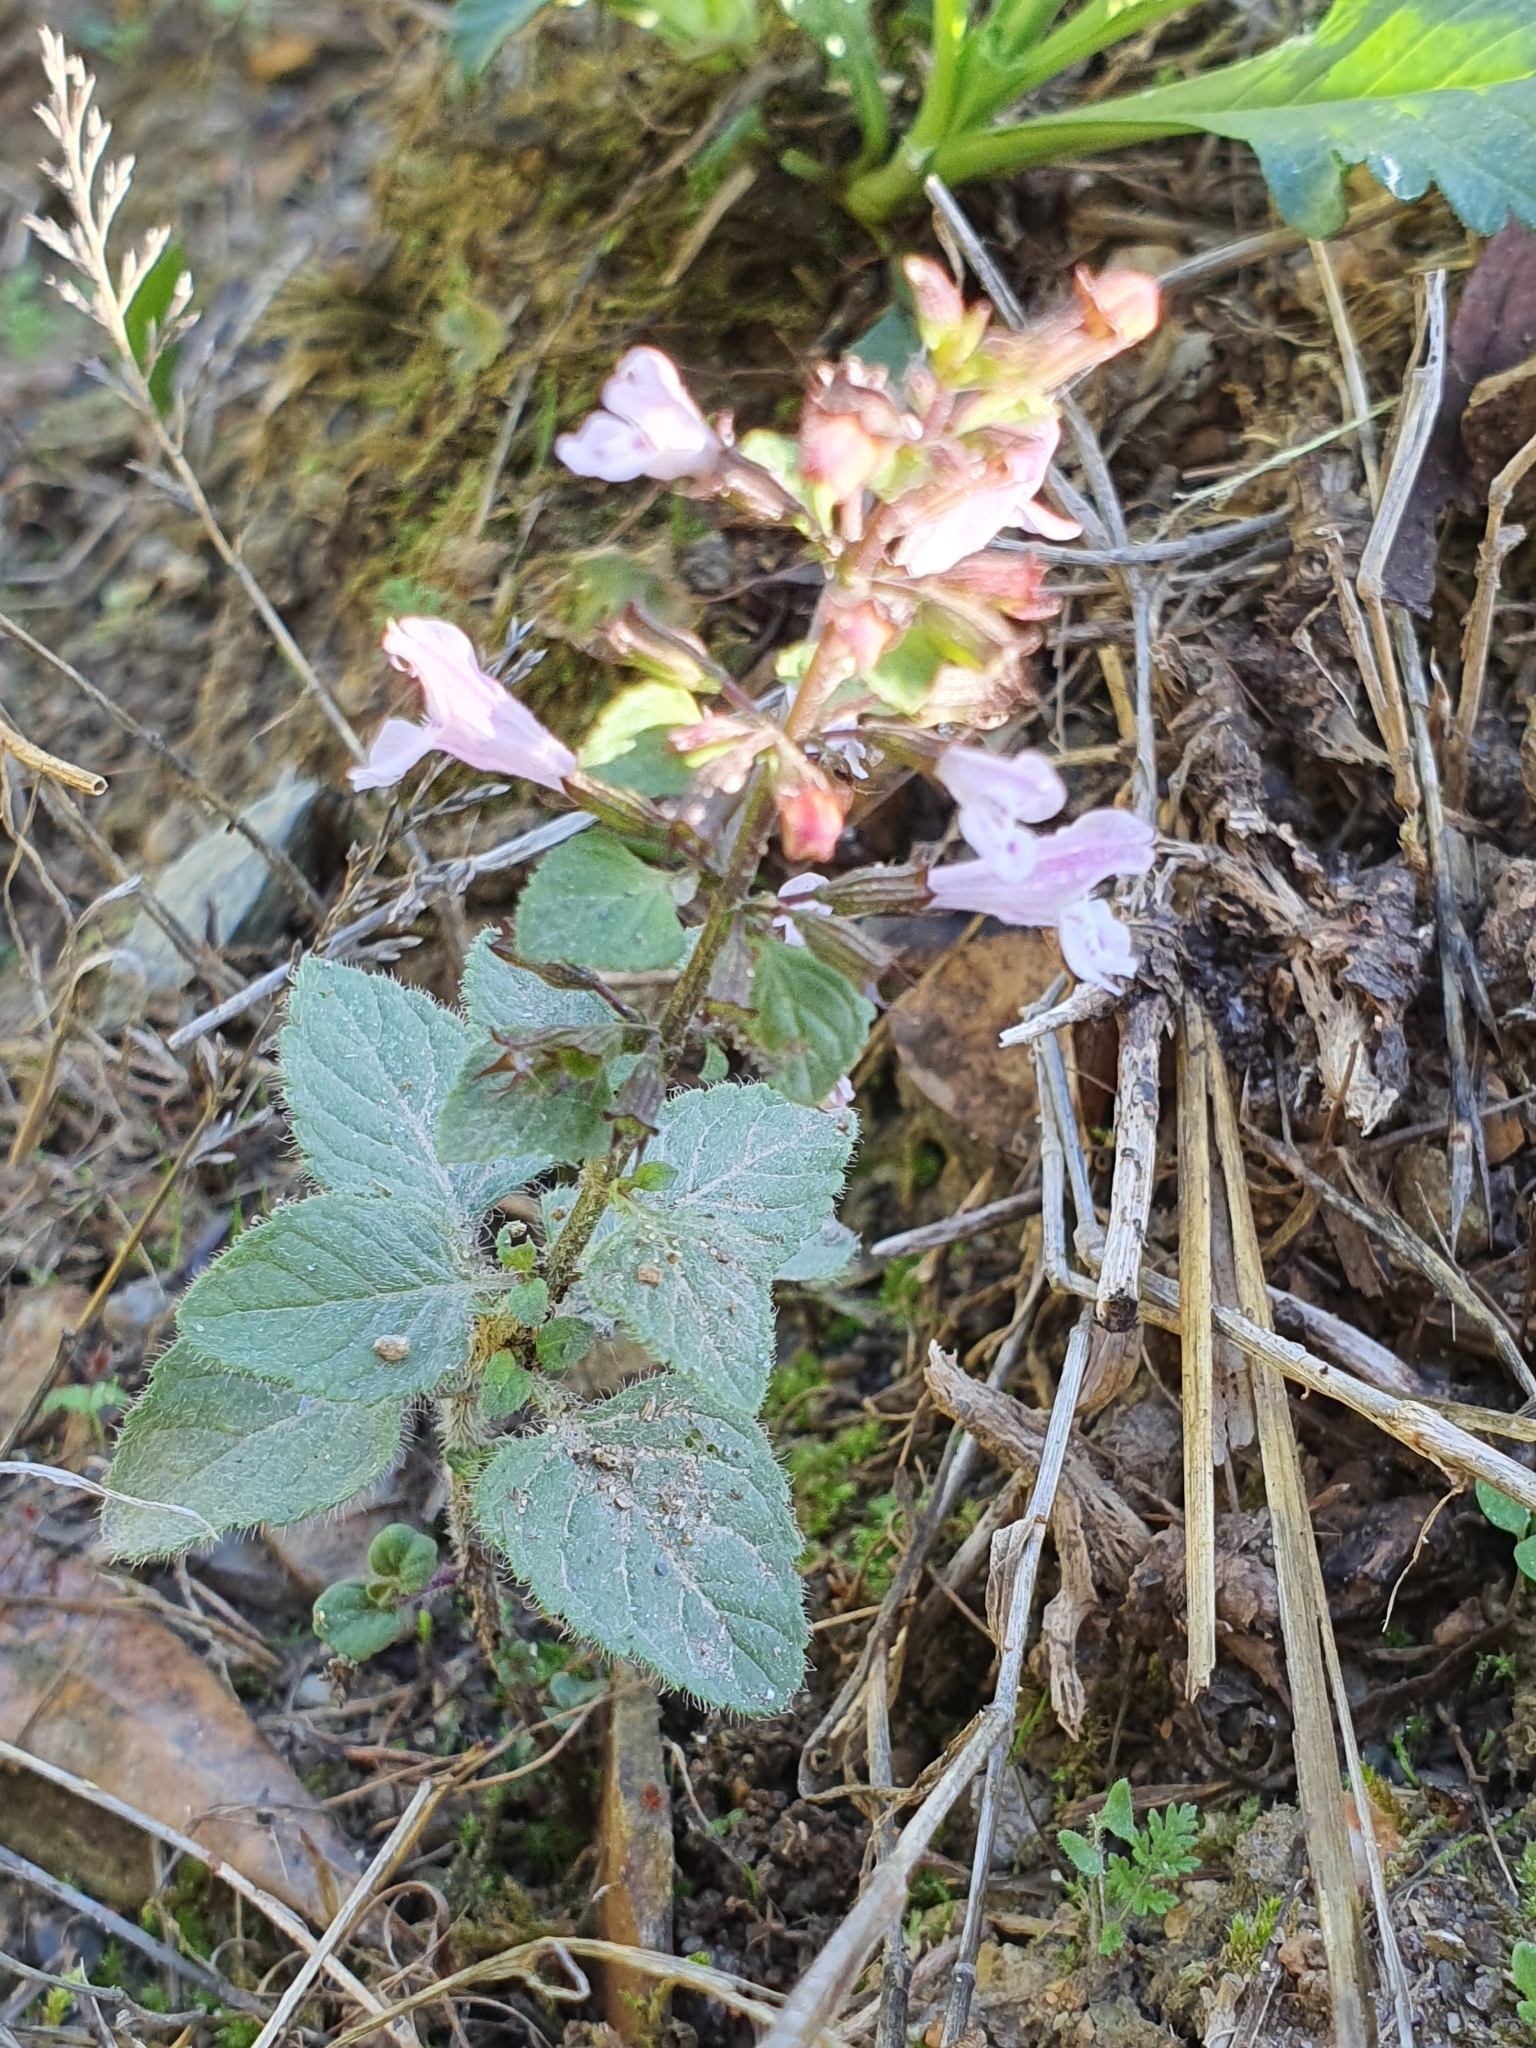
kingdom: Plantae
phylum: Tracheophyta
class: Magnoliopsida
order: Lamiales
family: Lamiaceae
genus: Clinopodium
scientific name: Clinopodium menthifolium
